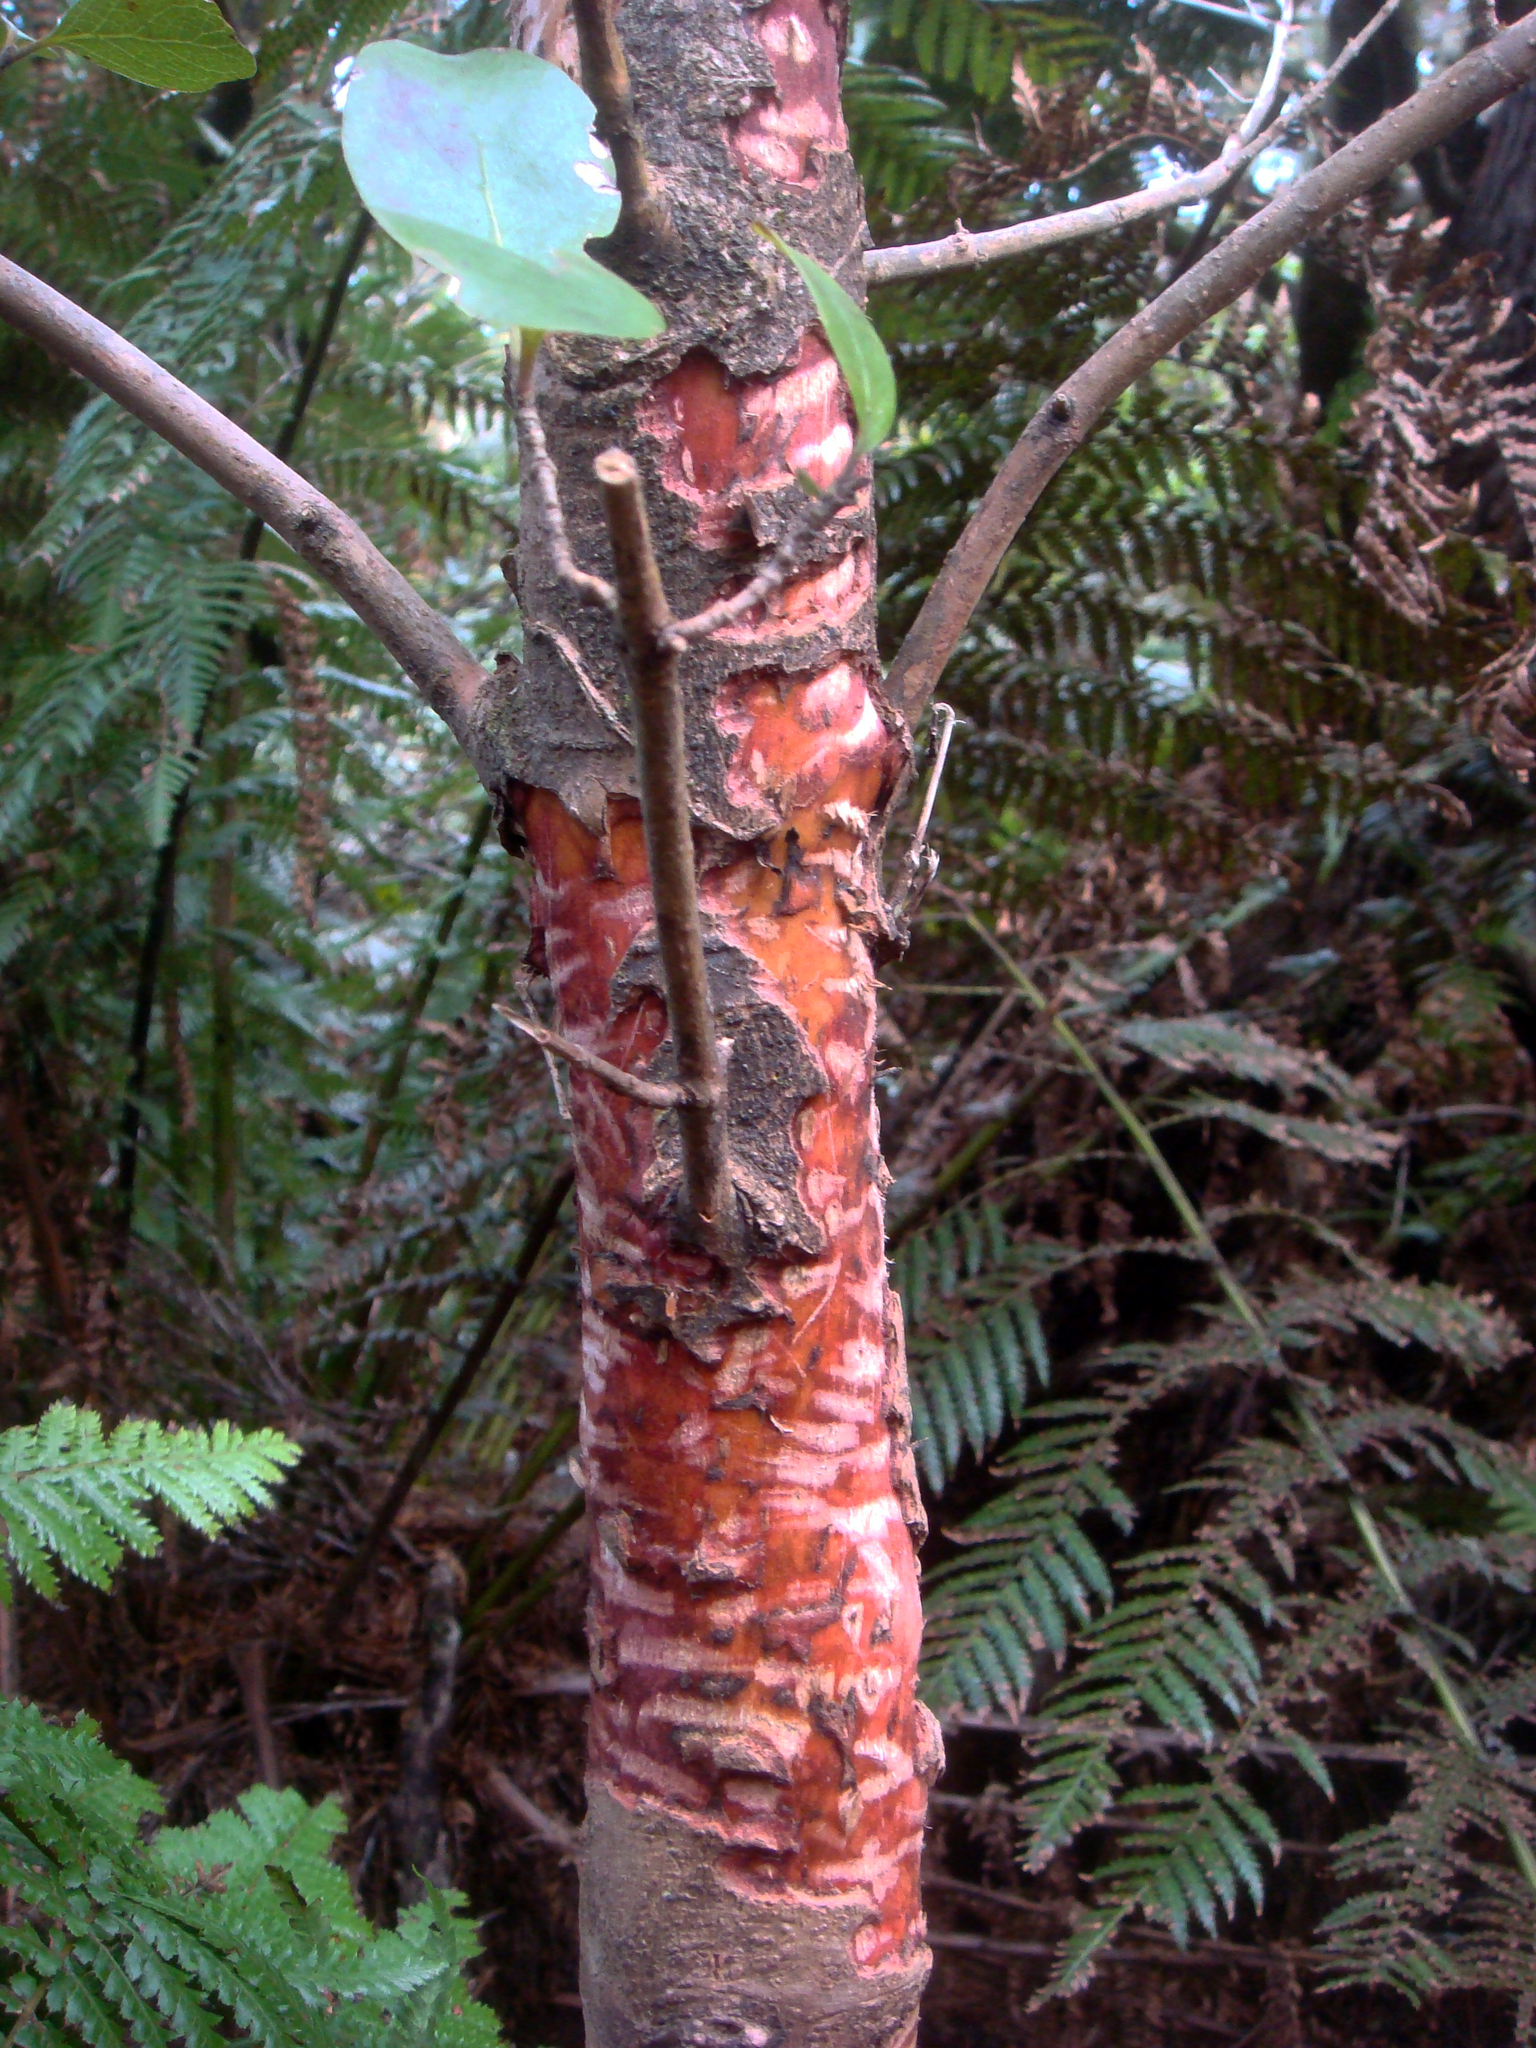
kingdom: Plantae
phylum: Tracheophyta
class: Magnoliopsida
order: Gentianales
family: Rubiaceae
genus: Coprosma
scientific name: Coprosma chathamica
